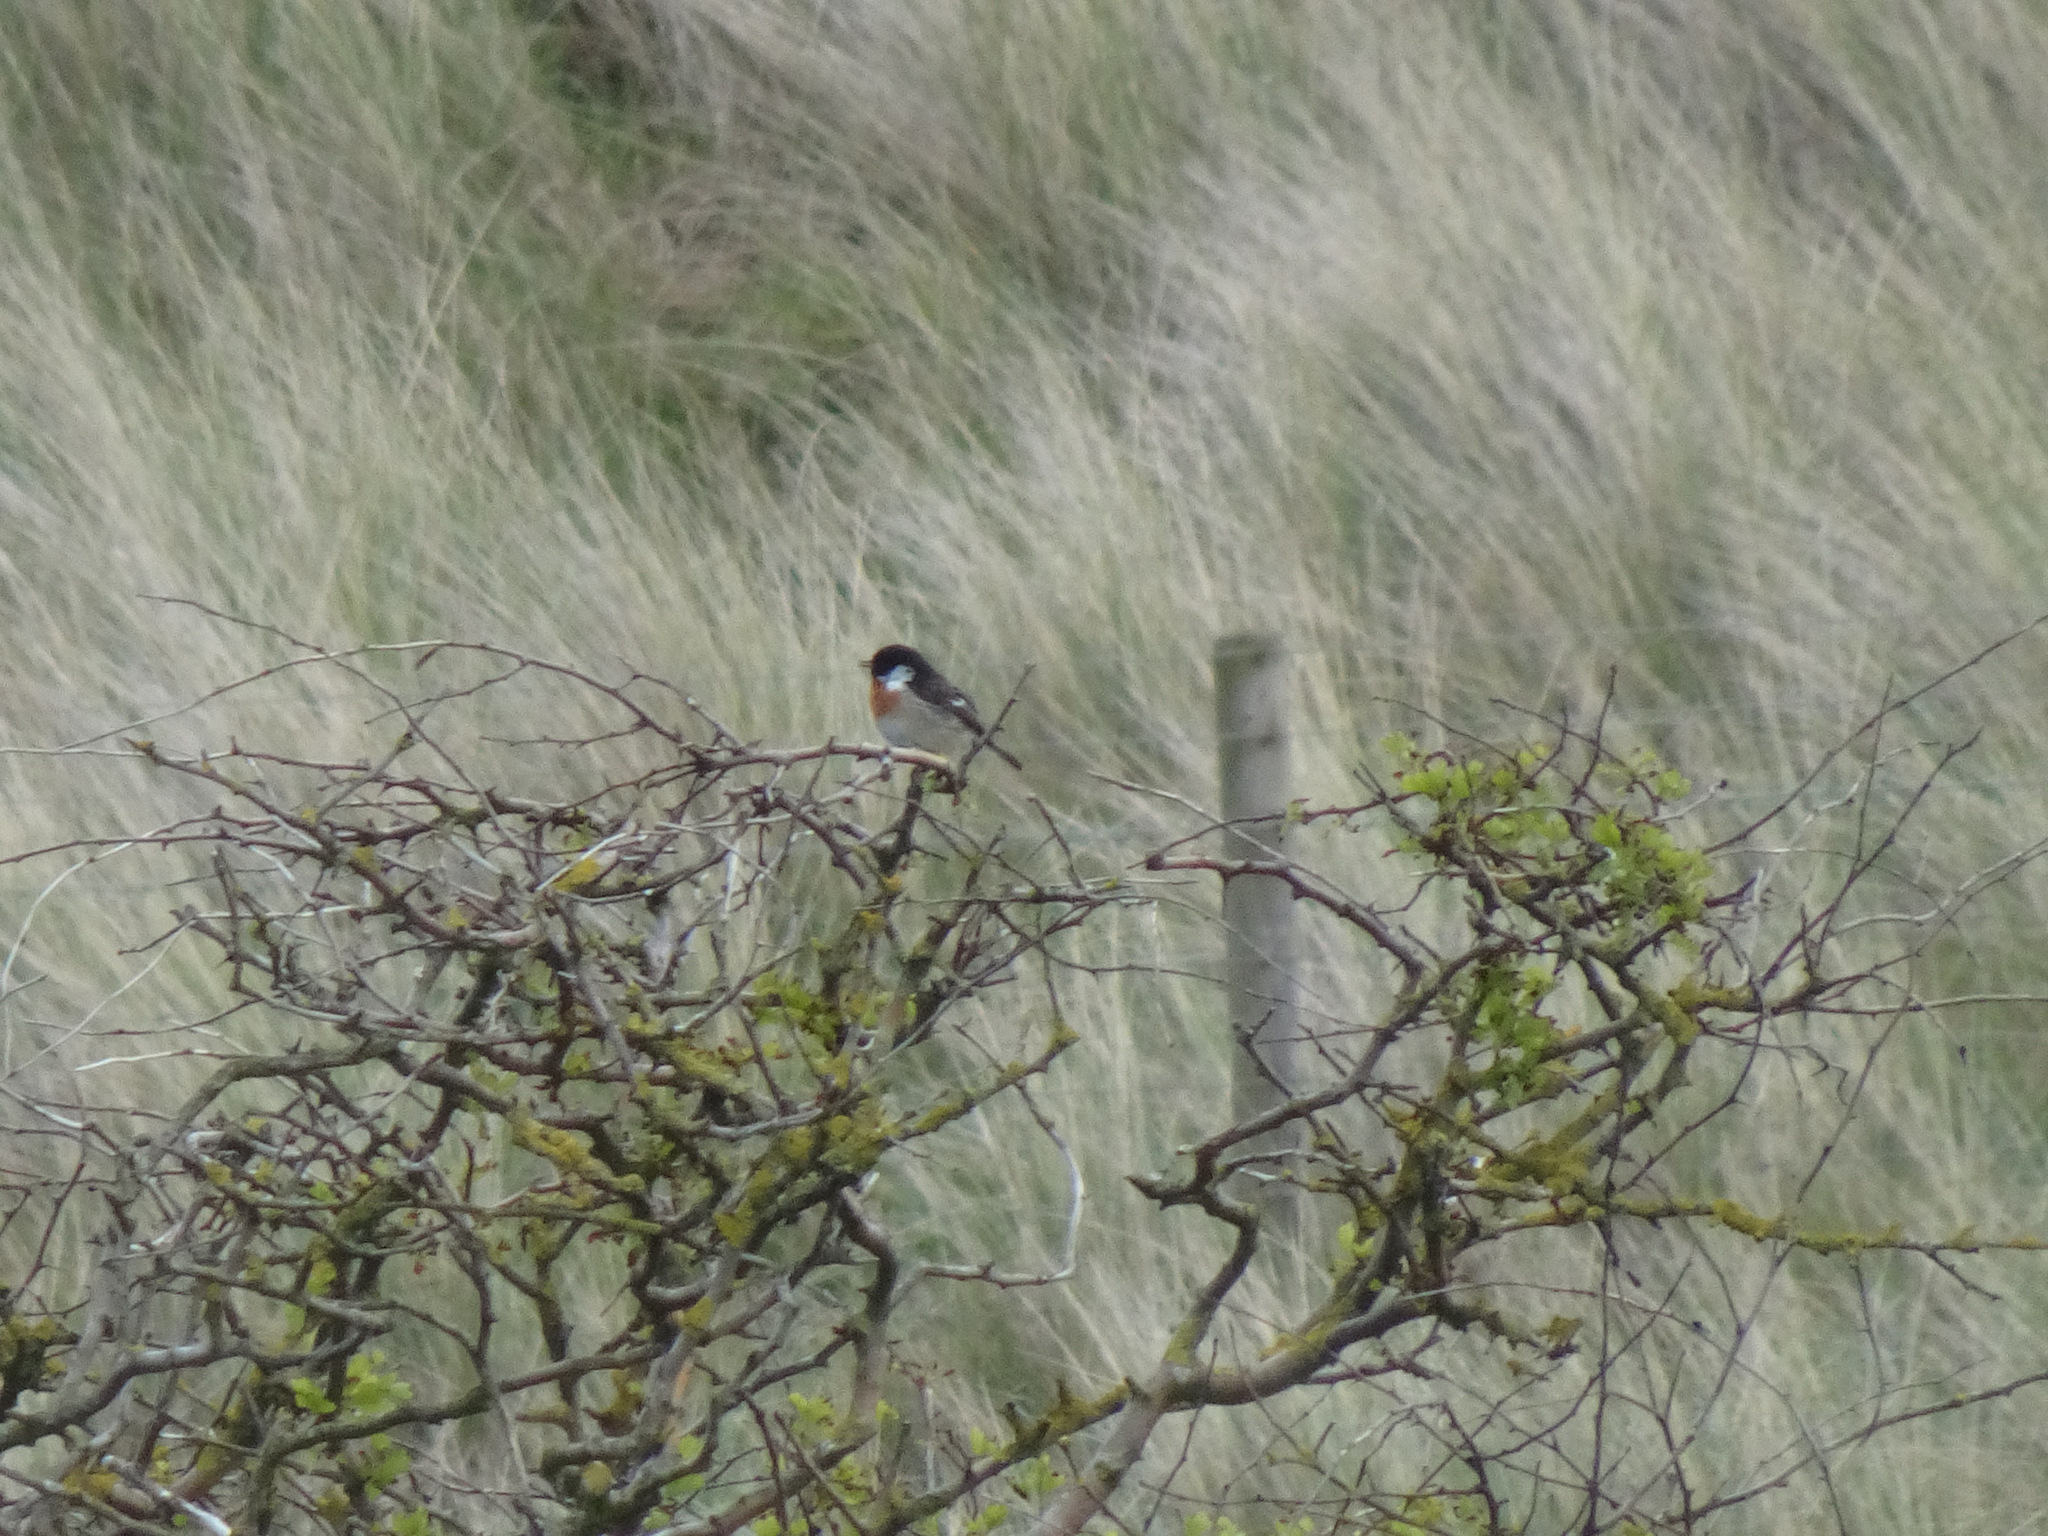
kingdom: Animalia
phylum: Chordata
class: Aves
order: Passeriformes
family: Muscicapidae
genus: Saxicola
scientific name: Saxicola rubicola
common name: European stonechat
